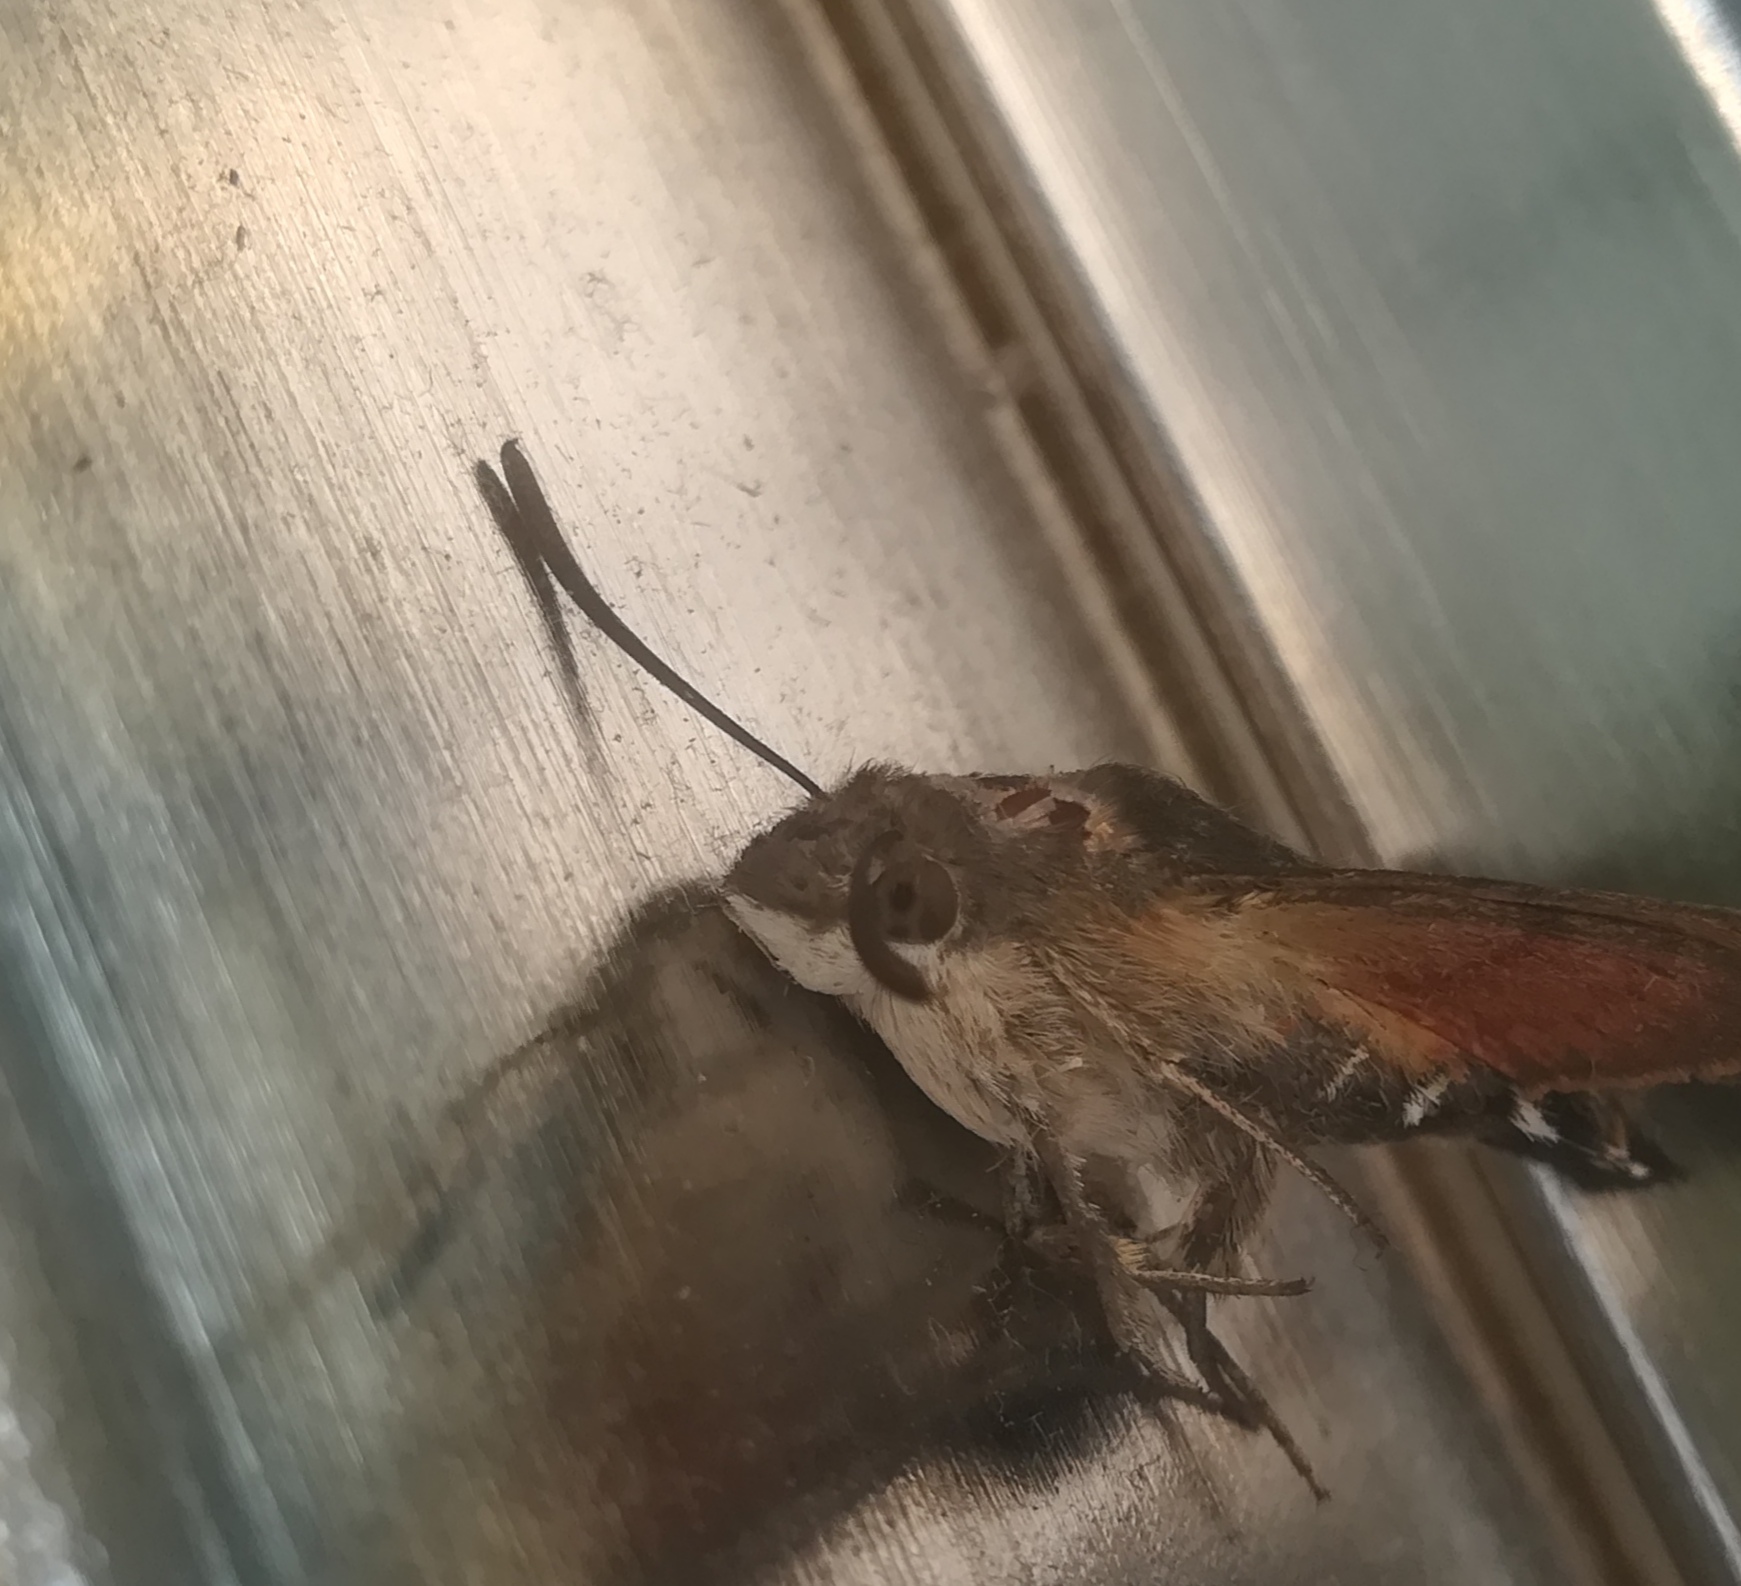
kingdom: Animalia
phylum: Arthropoda
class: Insecta
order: Lepidoptera
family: Sphingidae
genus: Macroglossum
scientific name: Macroglossum stellatarum
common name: Humming-bird hawk-moth
